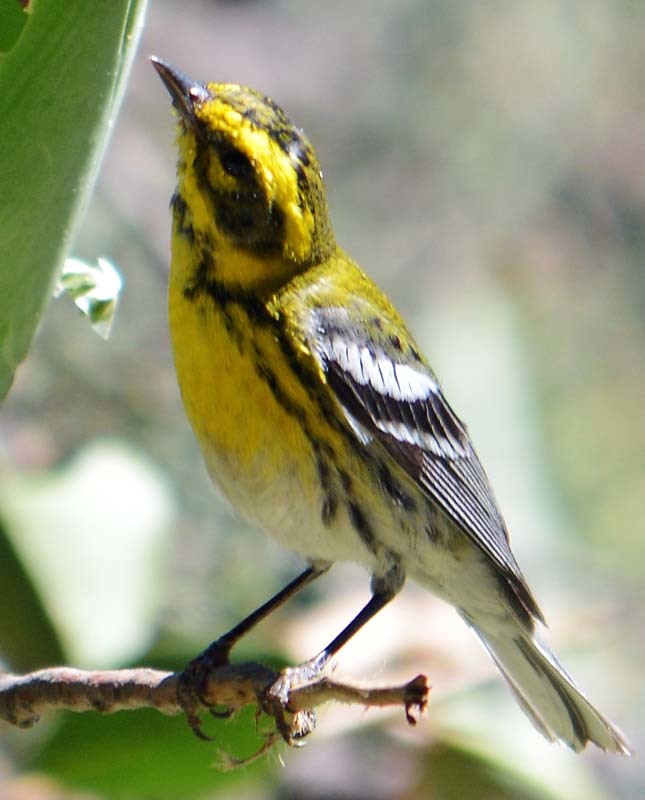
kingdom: Animalia
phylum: Chordata
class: Aves
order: Passeriformes
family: Parulidae
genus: Setophaga
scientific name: Setophaga townsendi
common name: Townsend's warbler
